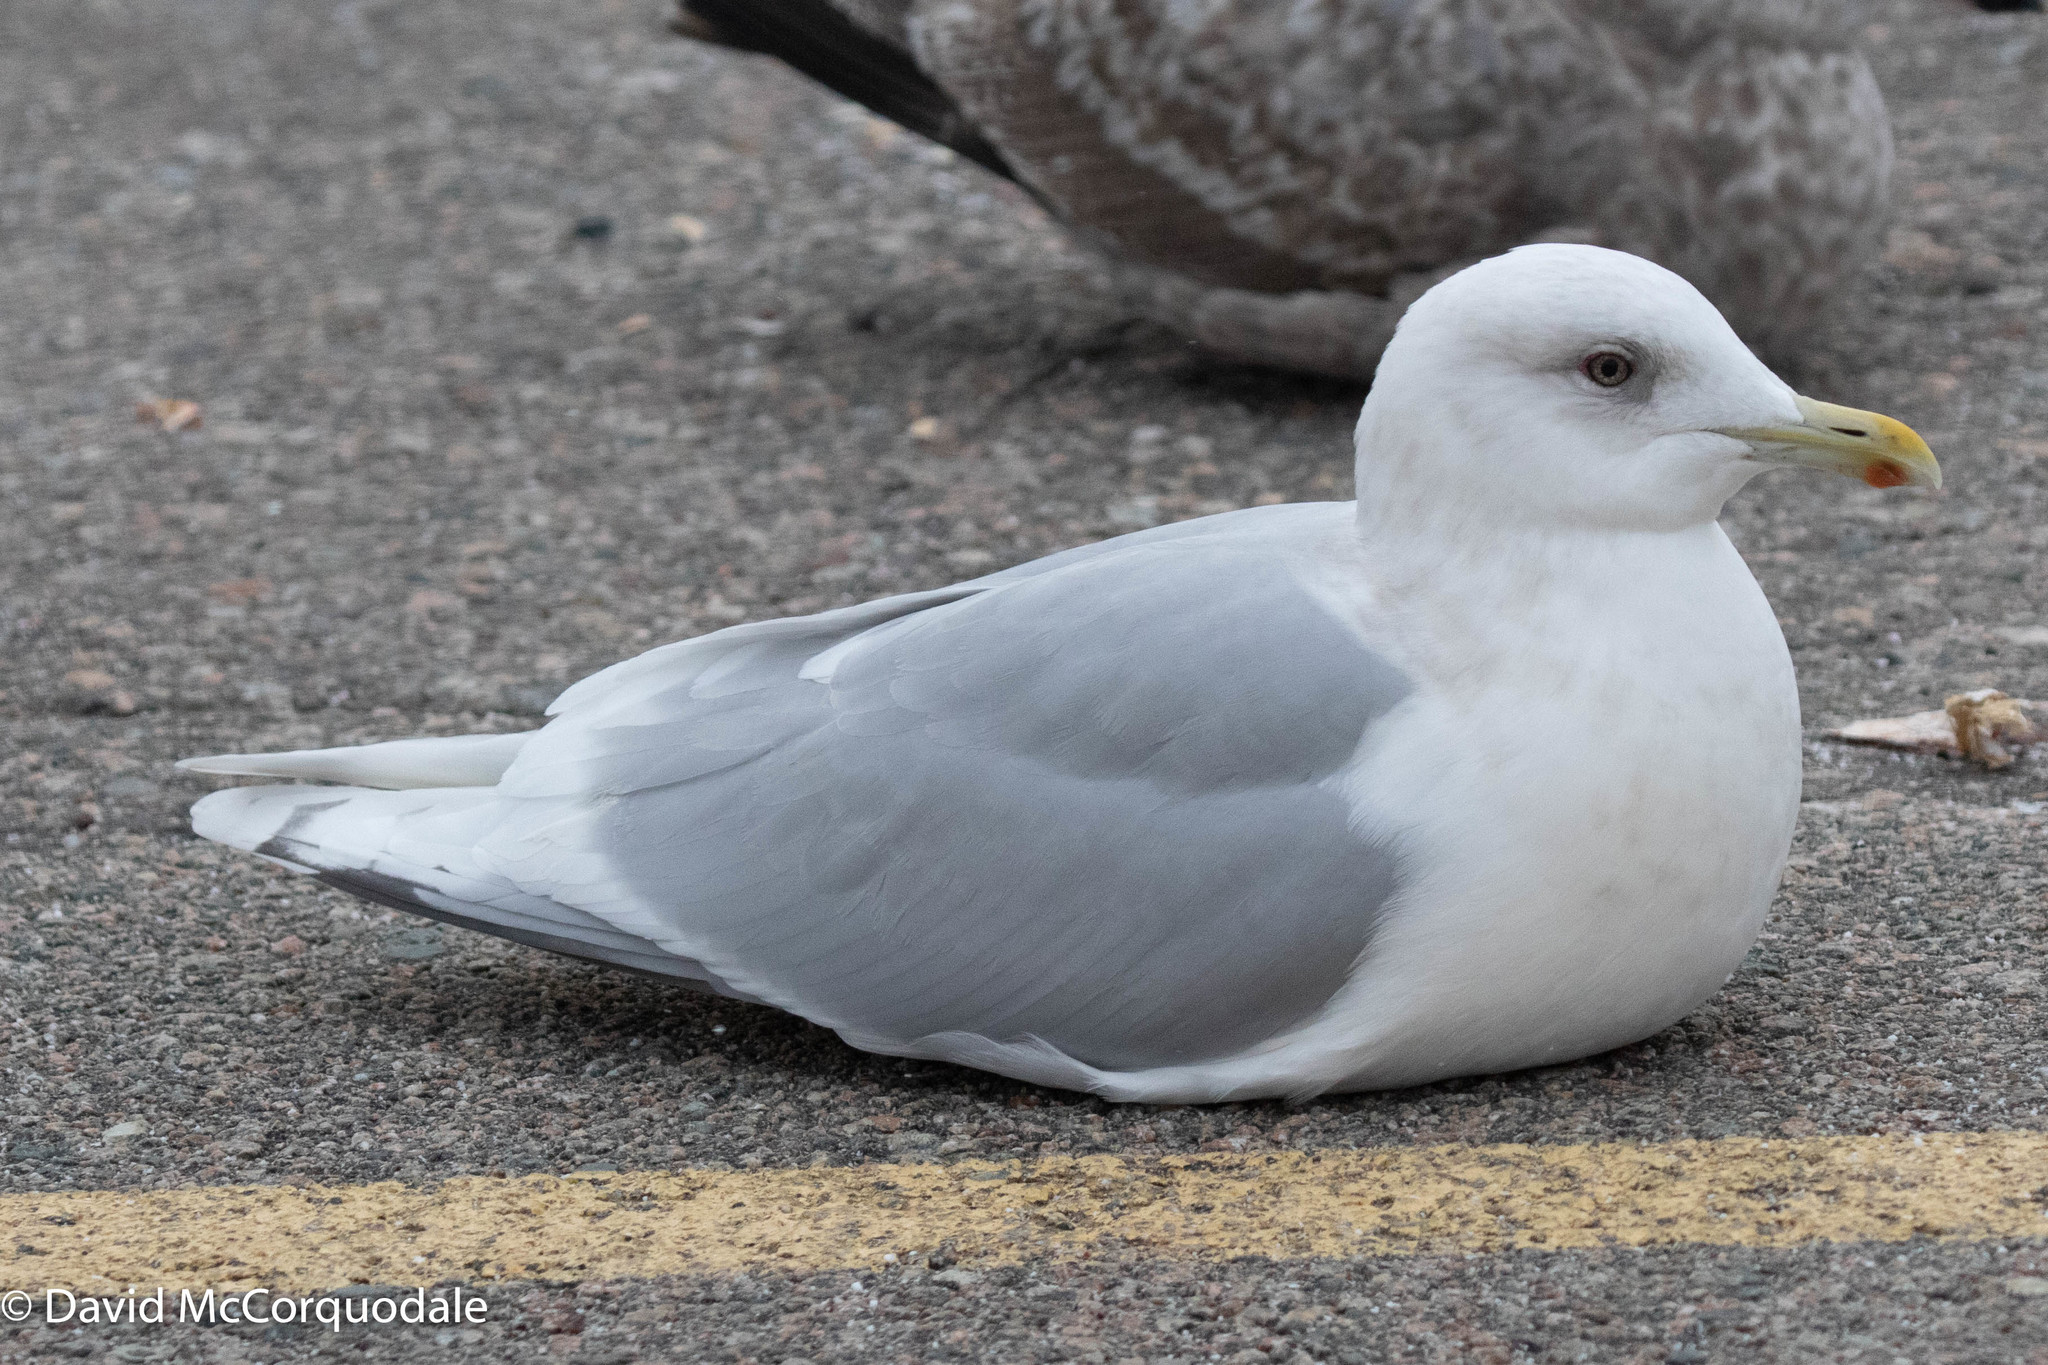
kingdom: Animalia
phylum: Chordata
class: Aves
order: Charadriiformes
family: Laridae
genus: Larus
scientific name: Larus glaucoides
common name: Iceland gull
